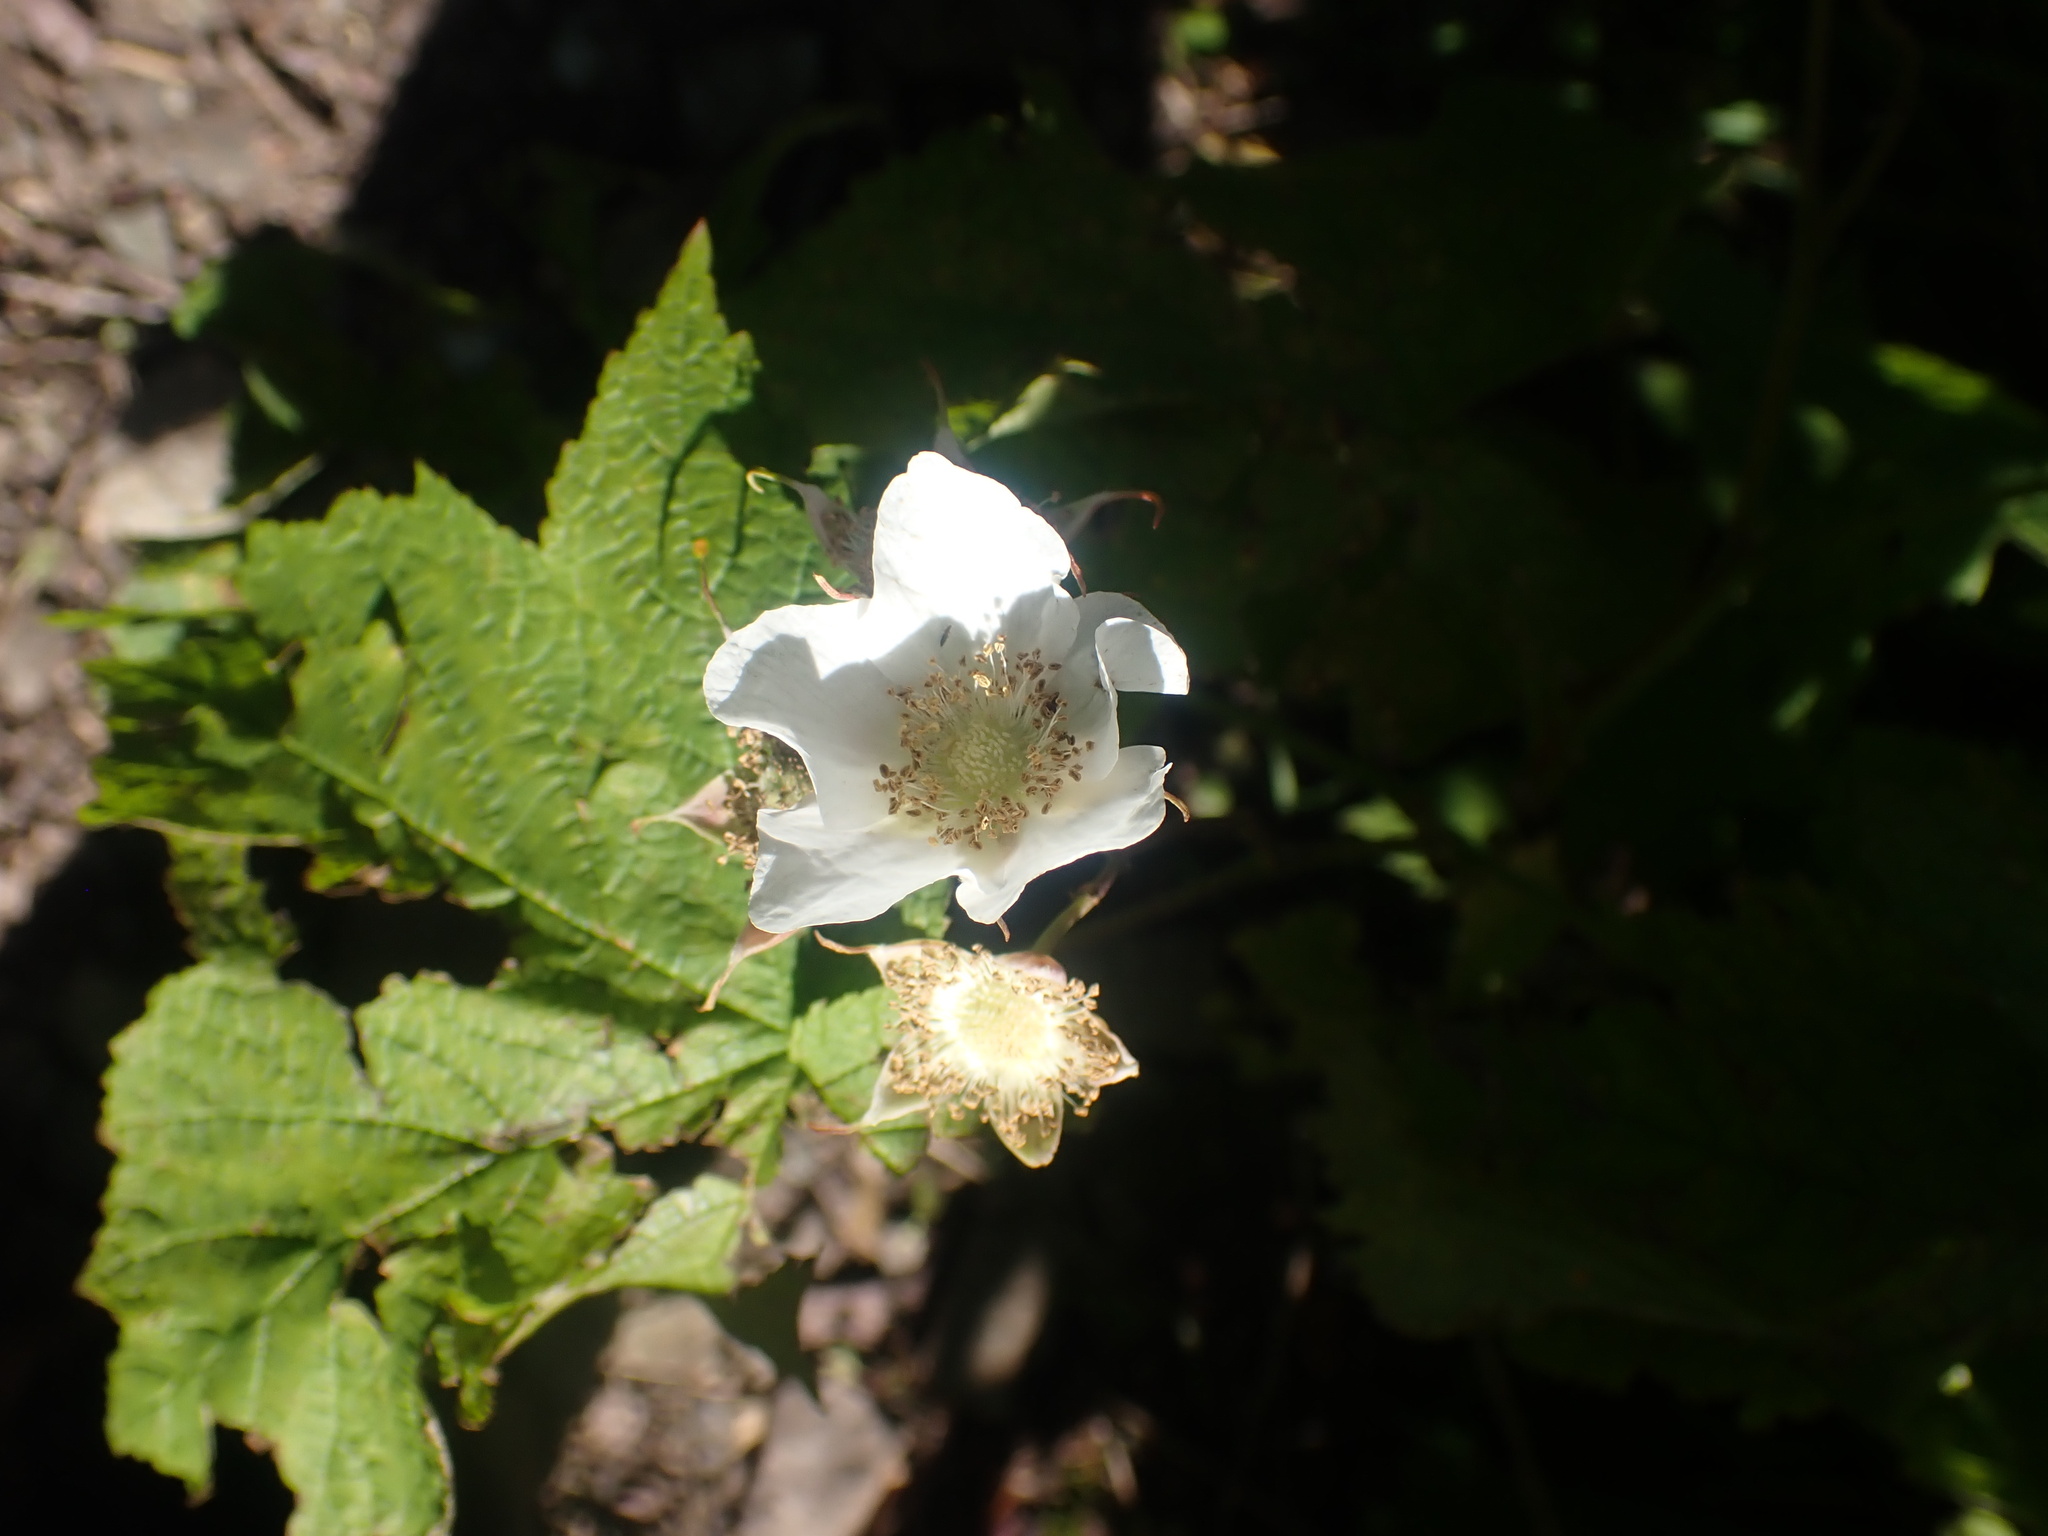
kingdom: Plantae
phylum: Tracheophyta
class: Magnoliopsida
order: Rosales
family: Rosaceae
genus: Rubus
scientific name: Rubus parviflorus
